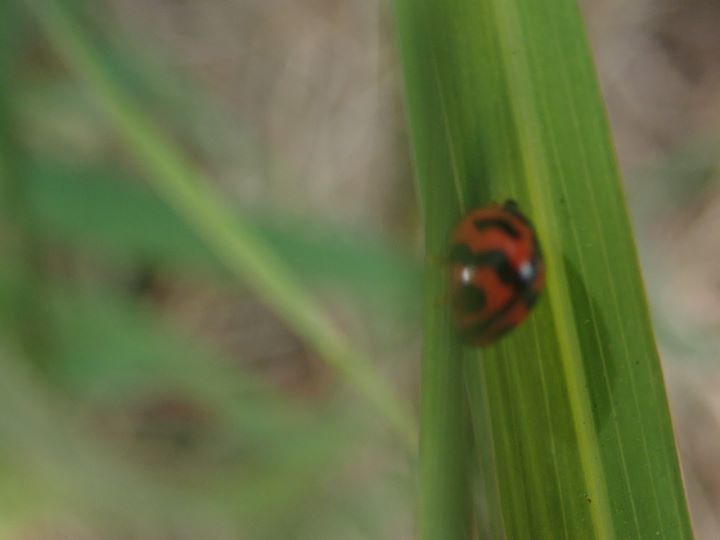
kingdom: Animalia
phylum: Arthropoda
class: Insecta
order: Coleoptera
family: Coccinellidae
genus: Cheilomenes
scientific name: Cheilomenes sexmaculata
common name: Ladybird beetle
